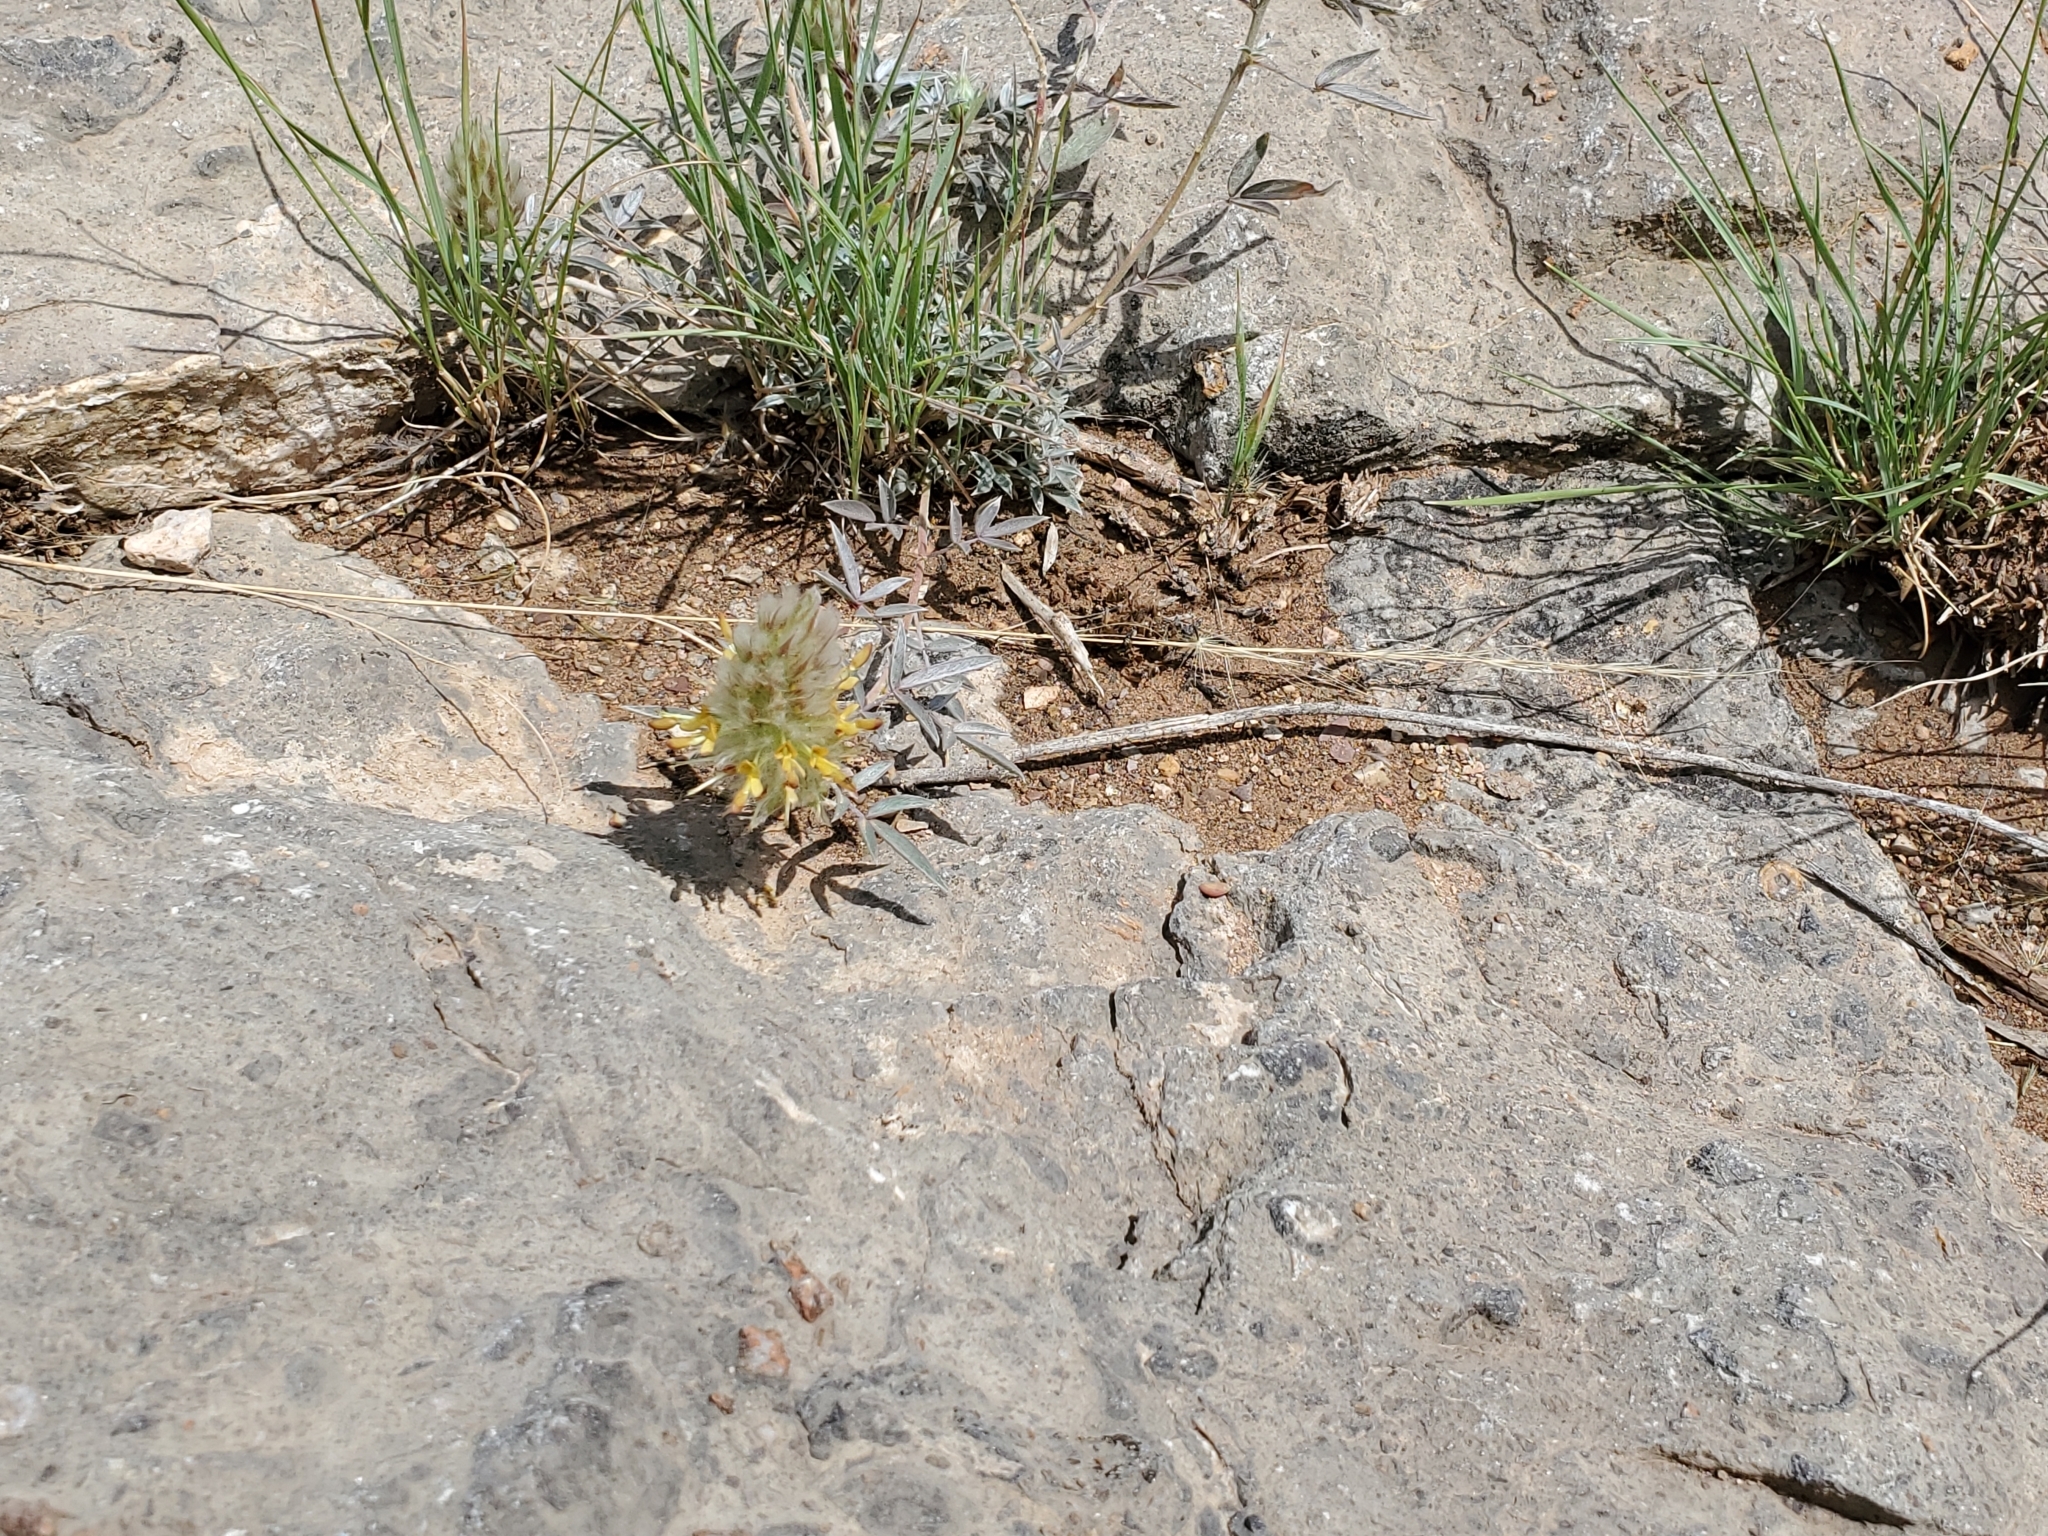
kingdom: Plantae
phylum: Tracheophyta
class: Magnoliopsida
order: Fabales
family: Fabaceae
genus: Dalea
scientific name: Dalea wrightii
